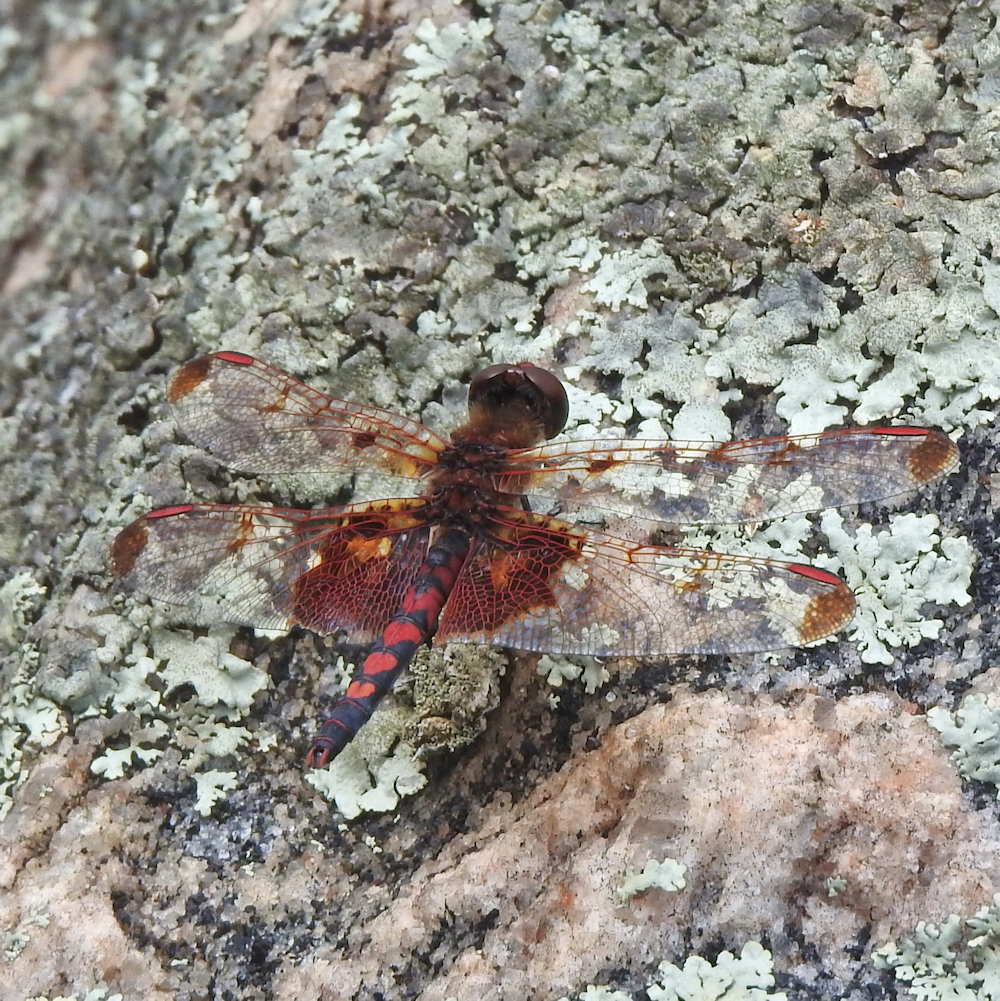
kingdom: Animalia
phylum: Arthropoda
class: Insecta
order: Odonata
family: Libellulidae
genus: Celithemis
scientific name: Celithemis elisa
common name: Calico pennant
